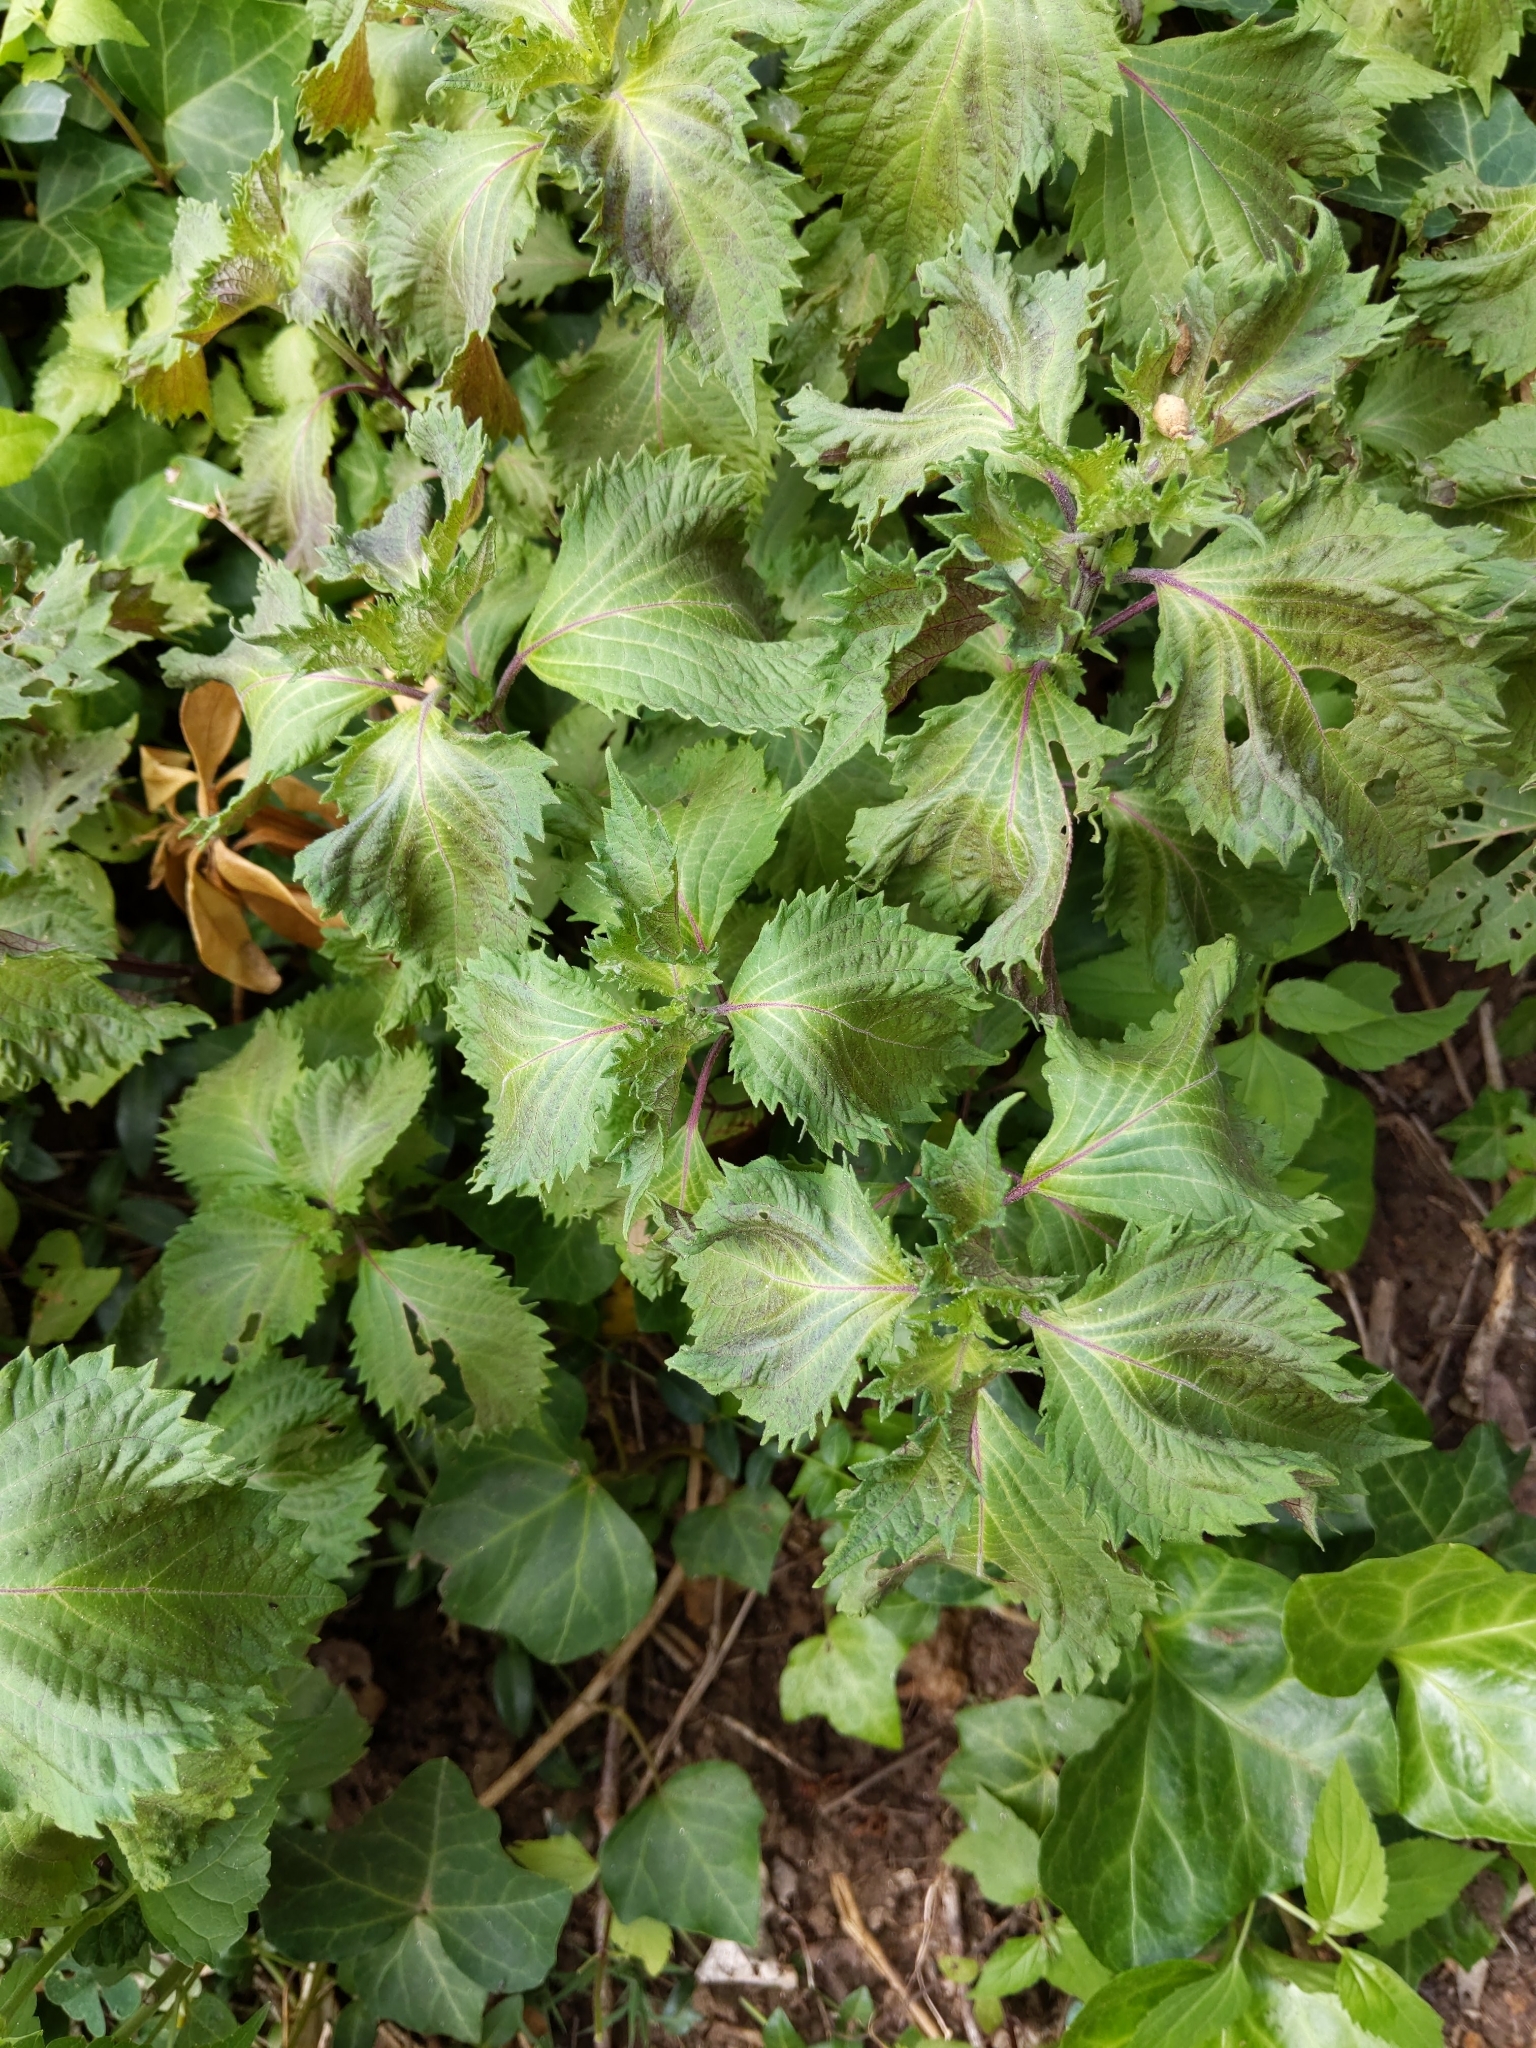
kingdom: Plantae
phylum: Tracheophyta
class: Magnoliopsida
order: Lamiales
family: Lamiaceae
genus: Perilla
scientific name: Perilla frutescens
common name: Perilla
